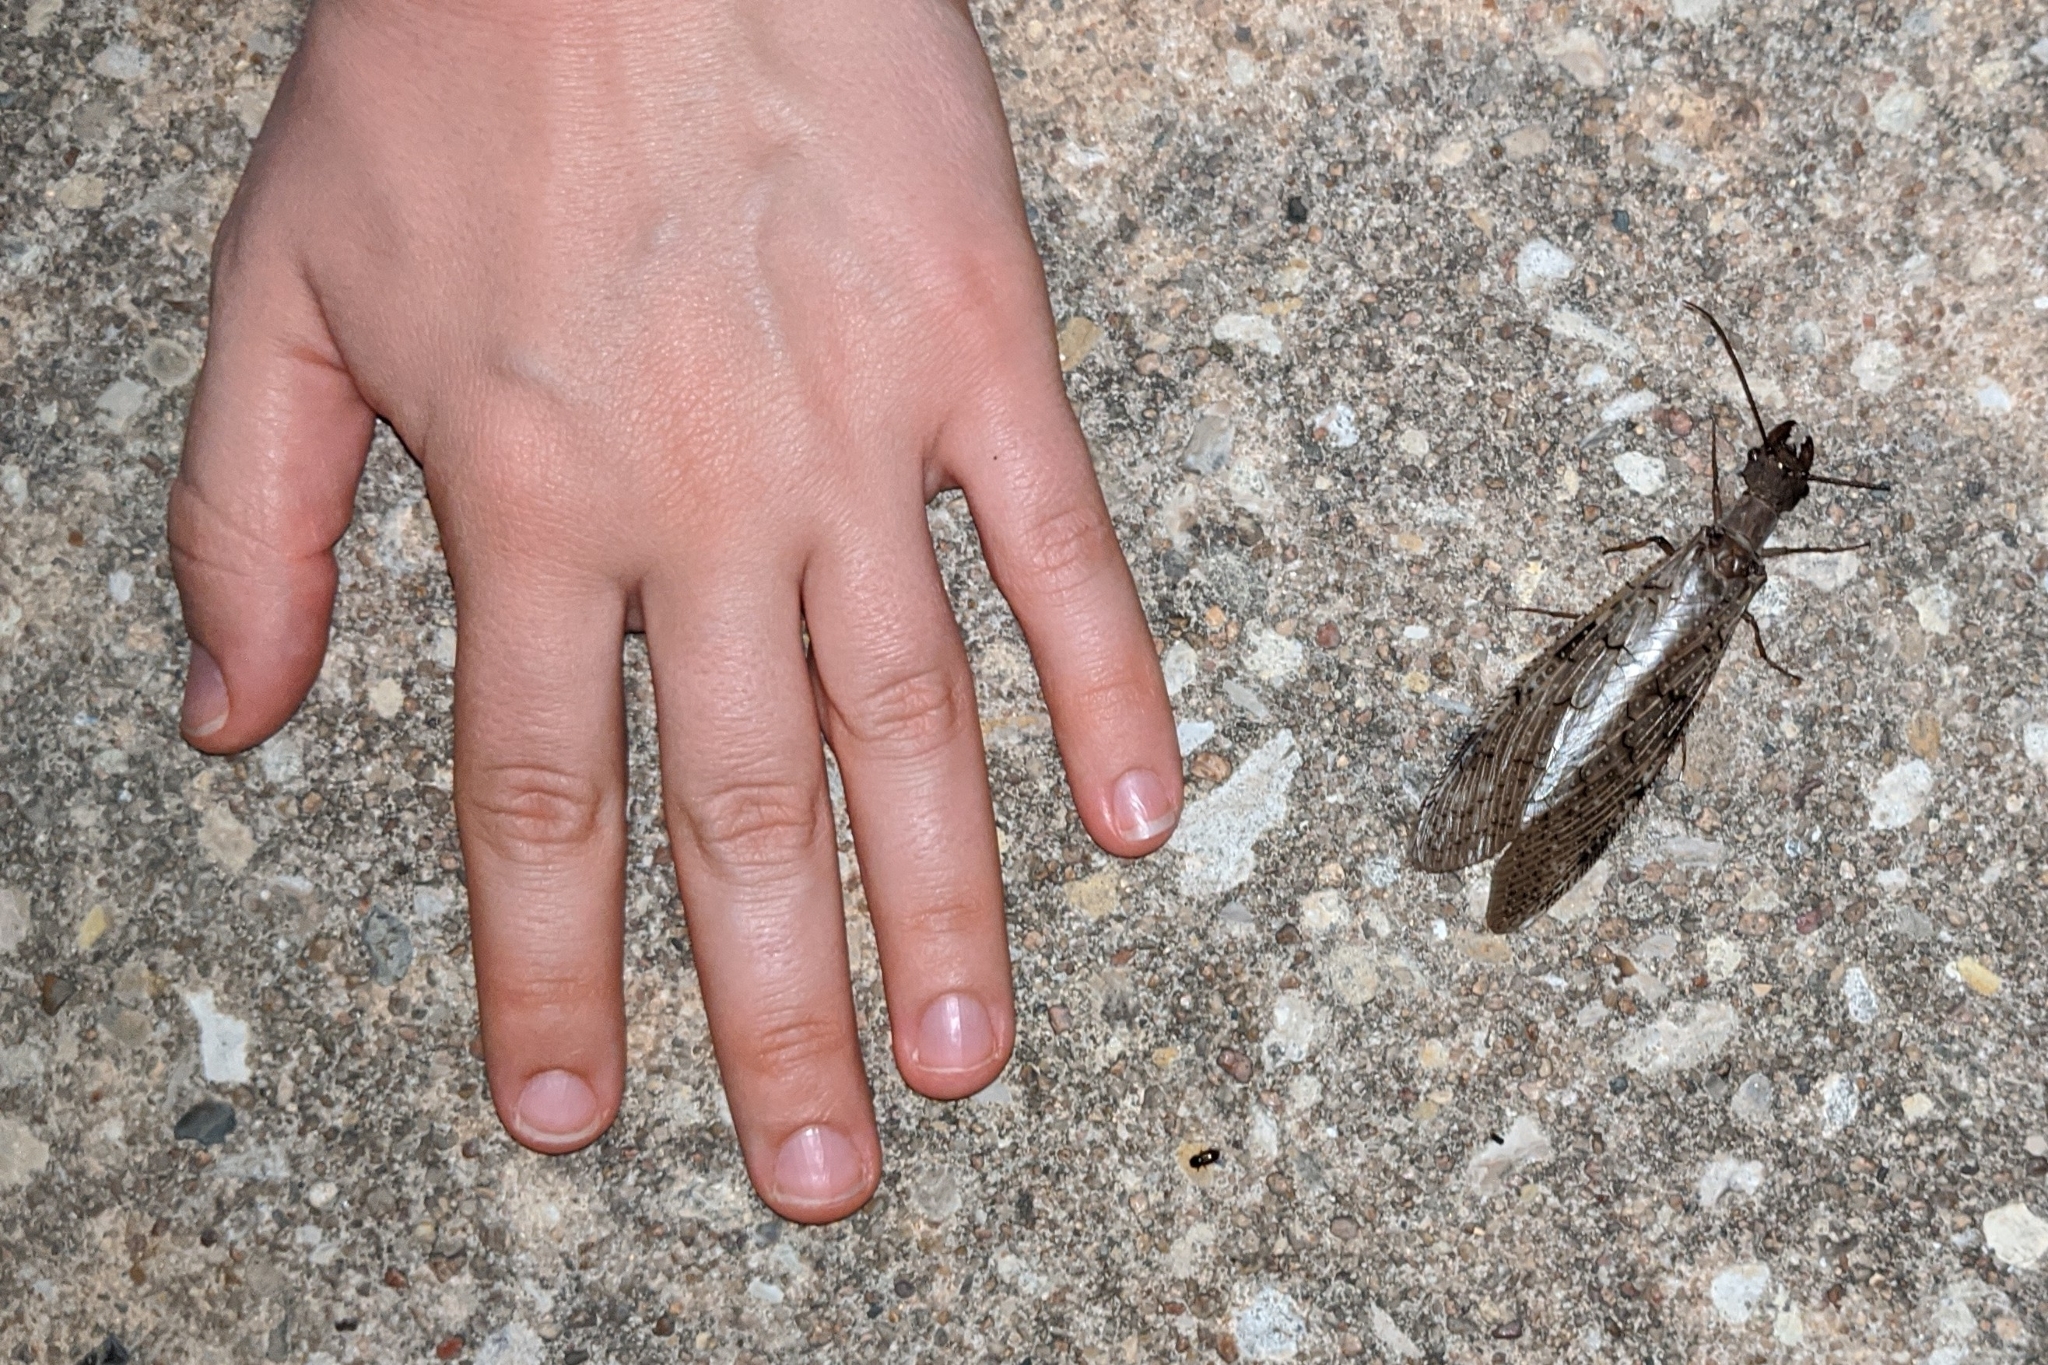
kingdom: Animalia
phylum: Arthropoda
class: Insecta
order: Megaloptera
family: Corydalidae
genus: Corydalus
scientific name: Corydalus cornutus
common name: Dobsonfly
